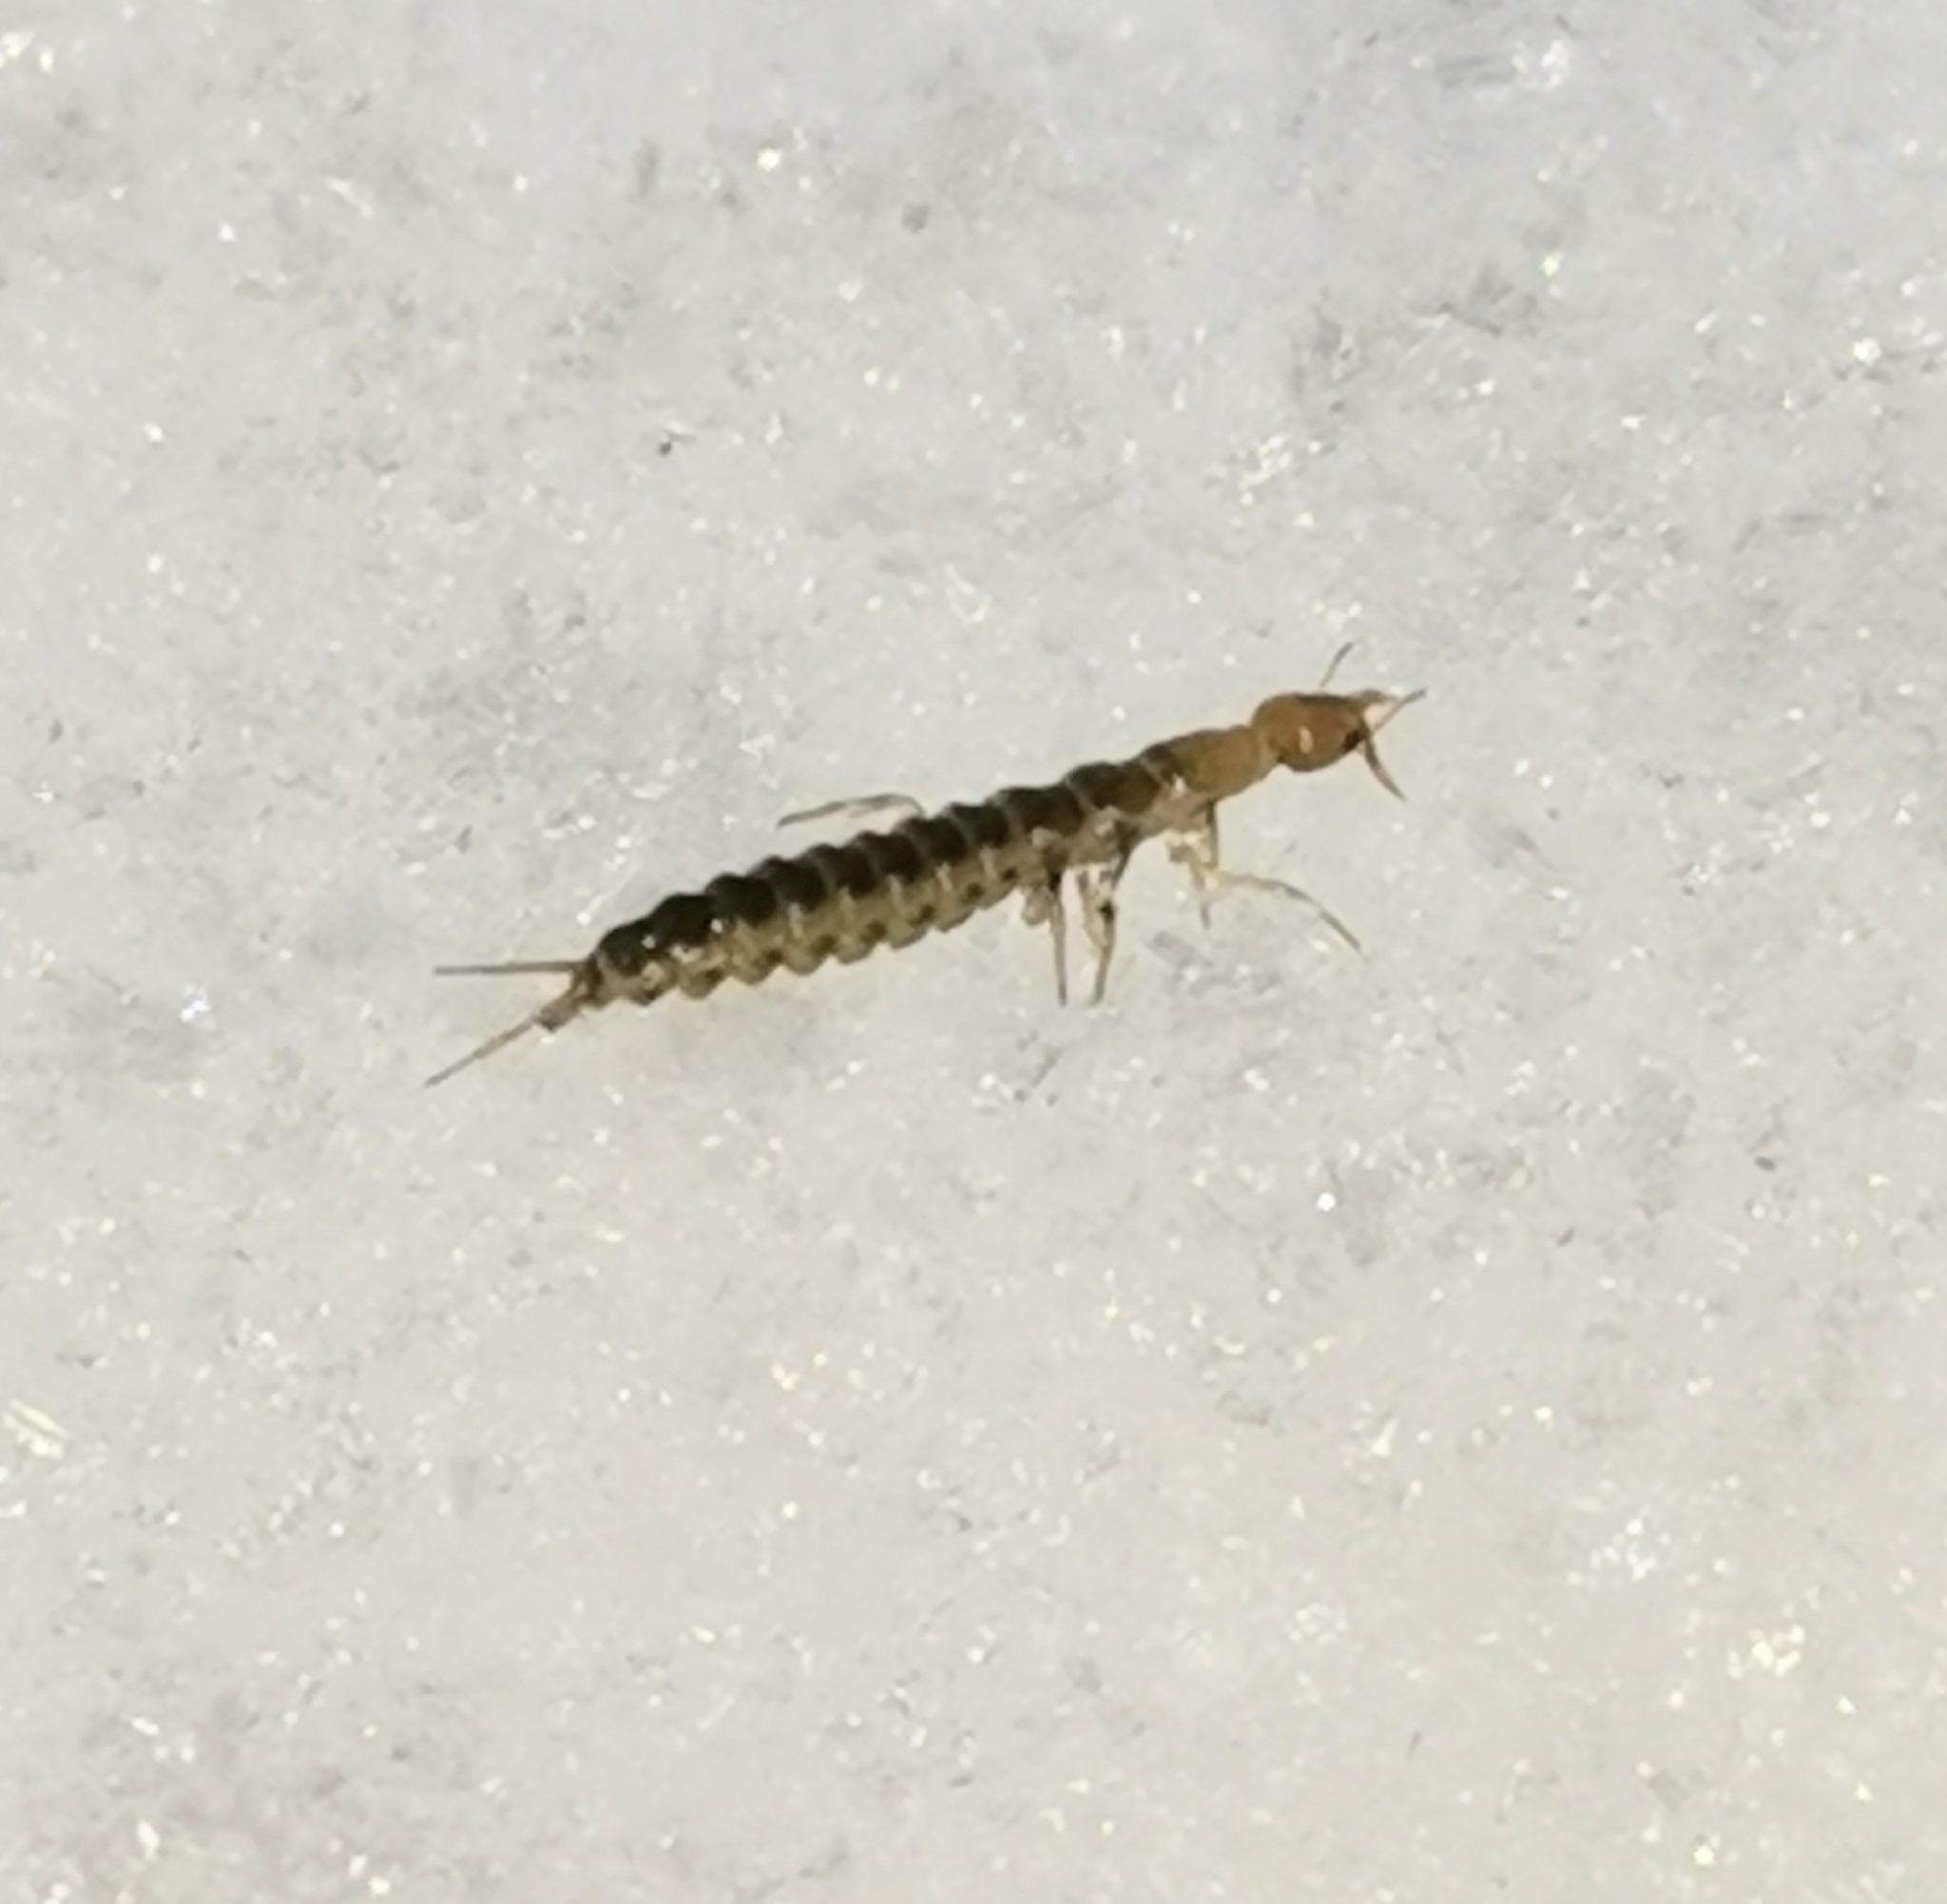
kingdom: Animalia
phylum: Arthropoda
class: Insecta
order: Coleoptera
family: Carabidae
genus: Leistus
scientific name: Leistus
